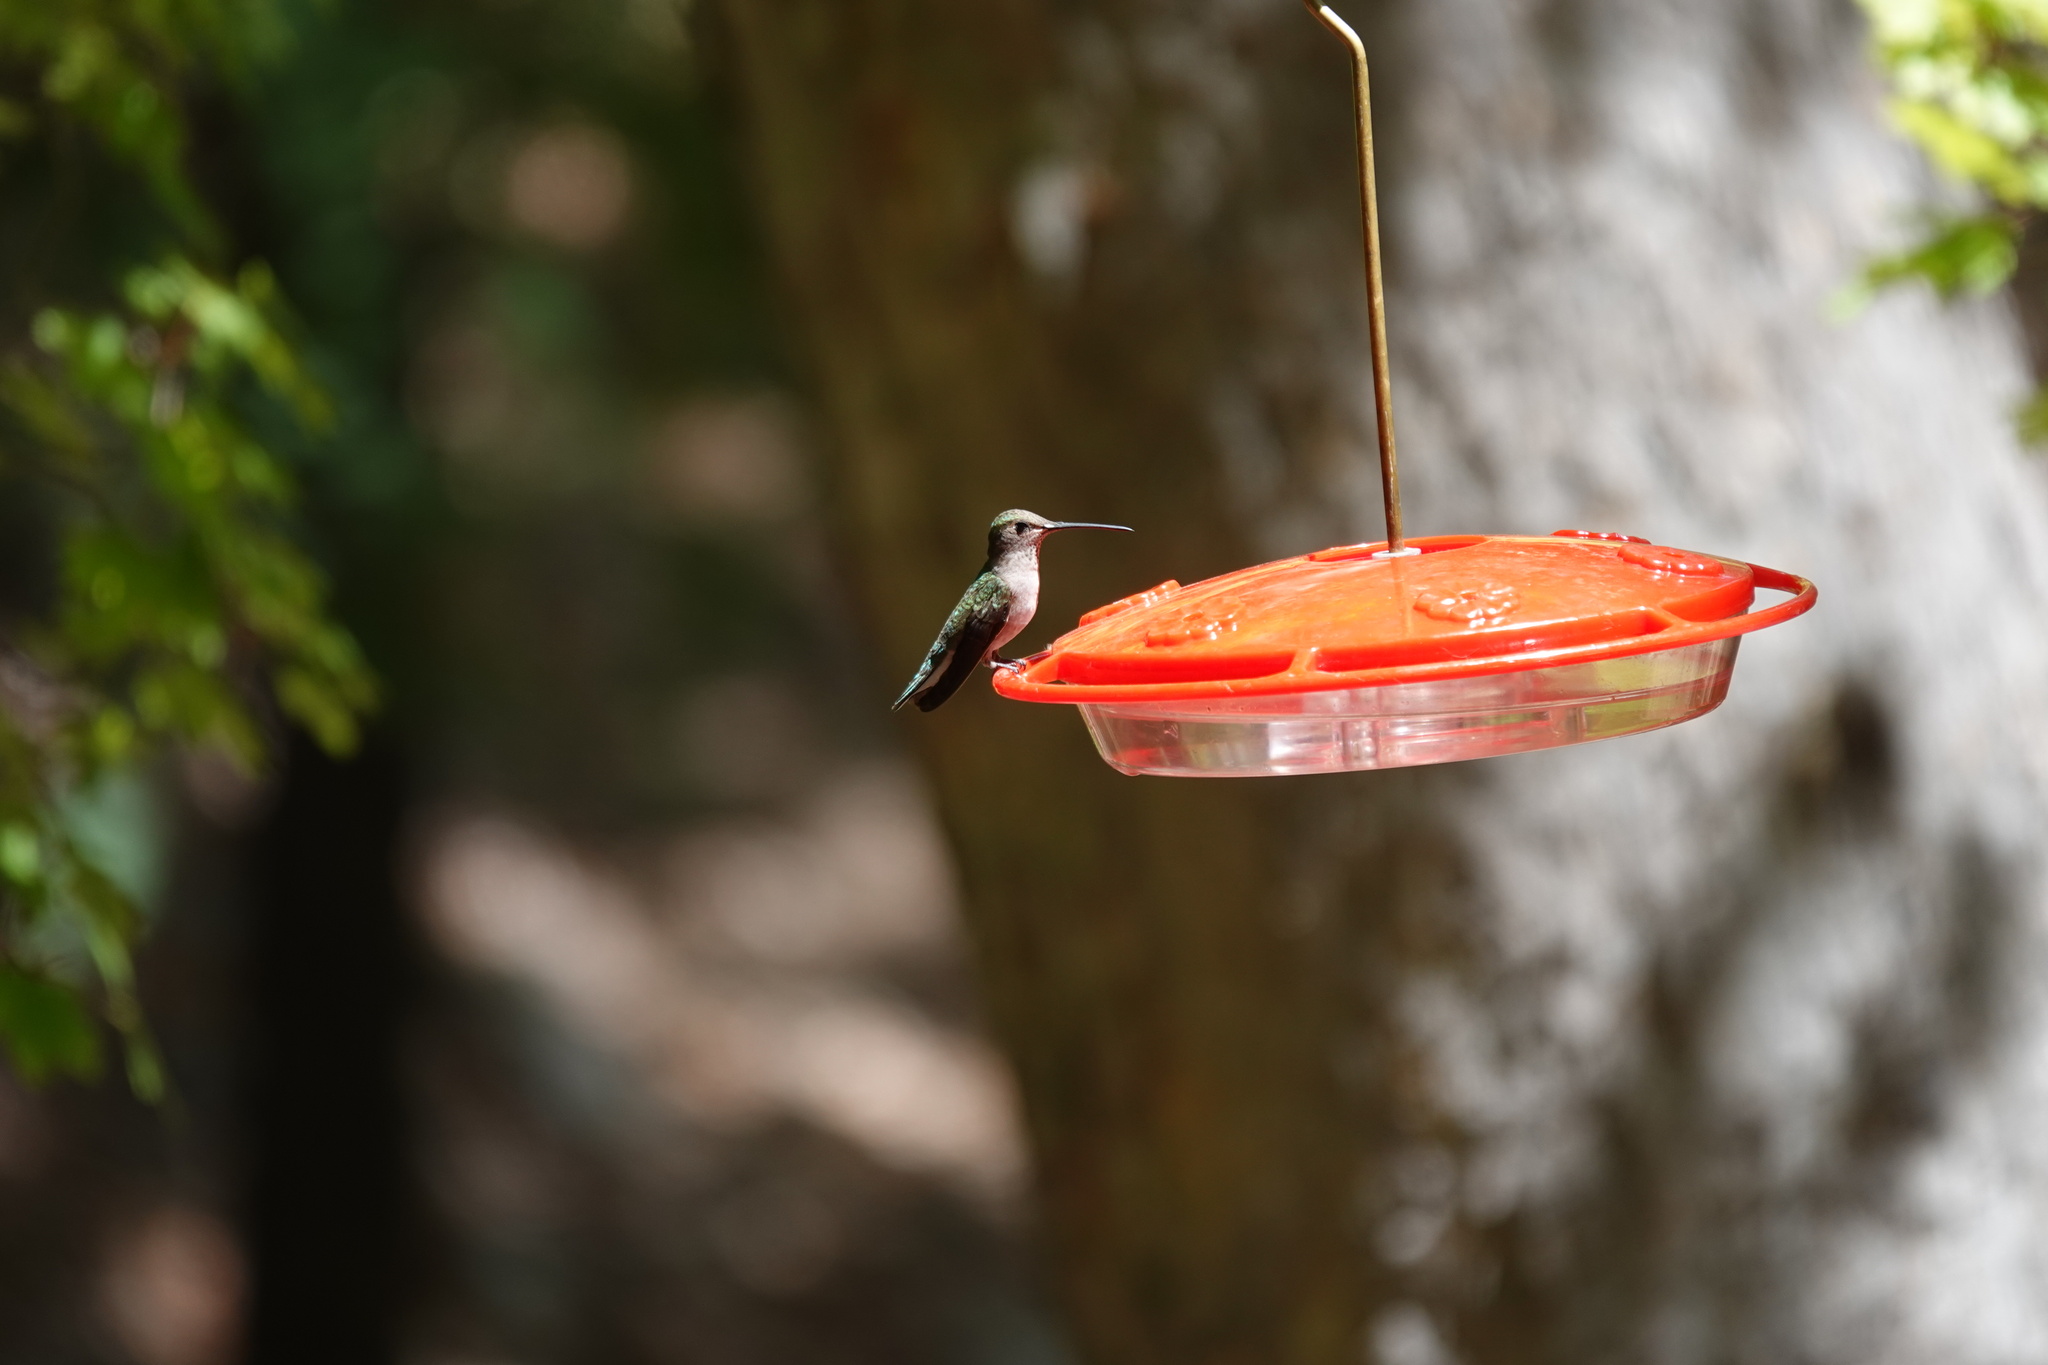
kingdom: Animalia
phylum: Chordata
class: Aves
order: Apodiformes
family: Trochilidae
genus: Archilochus
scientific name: Archilochus alexandri
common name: Black-chinned hummingbird
